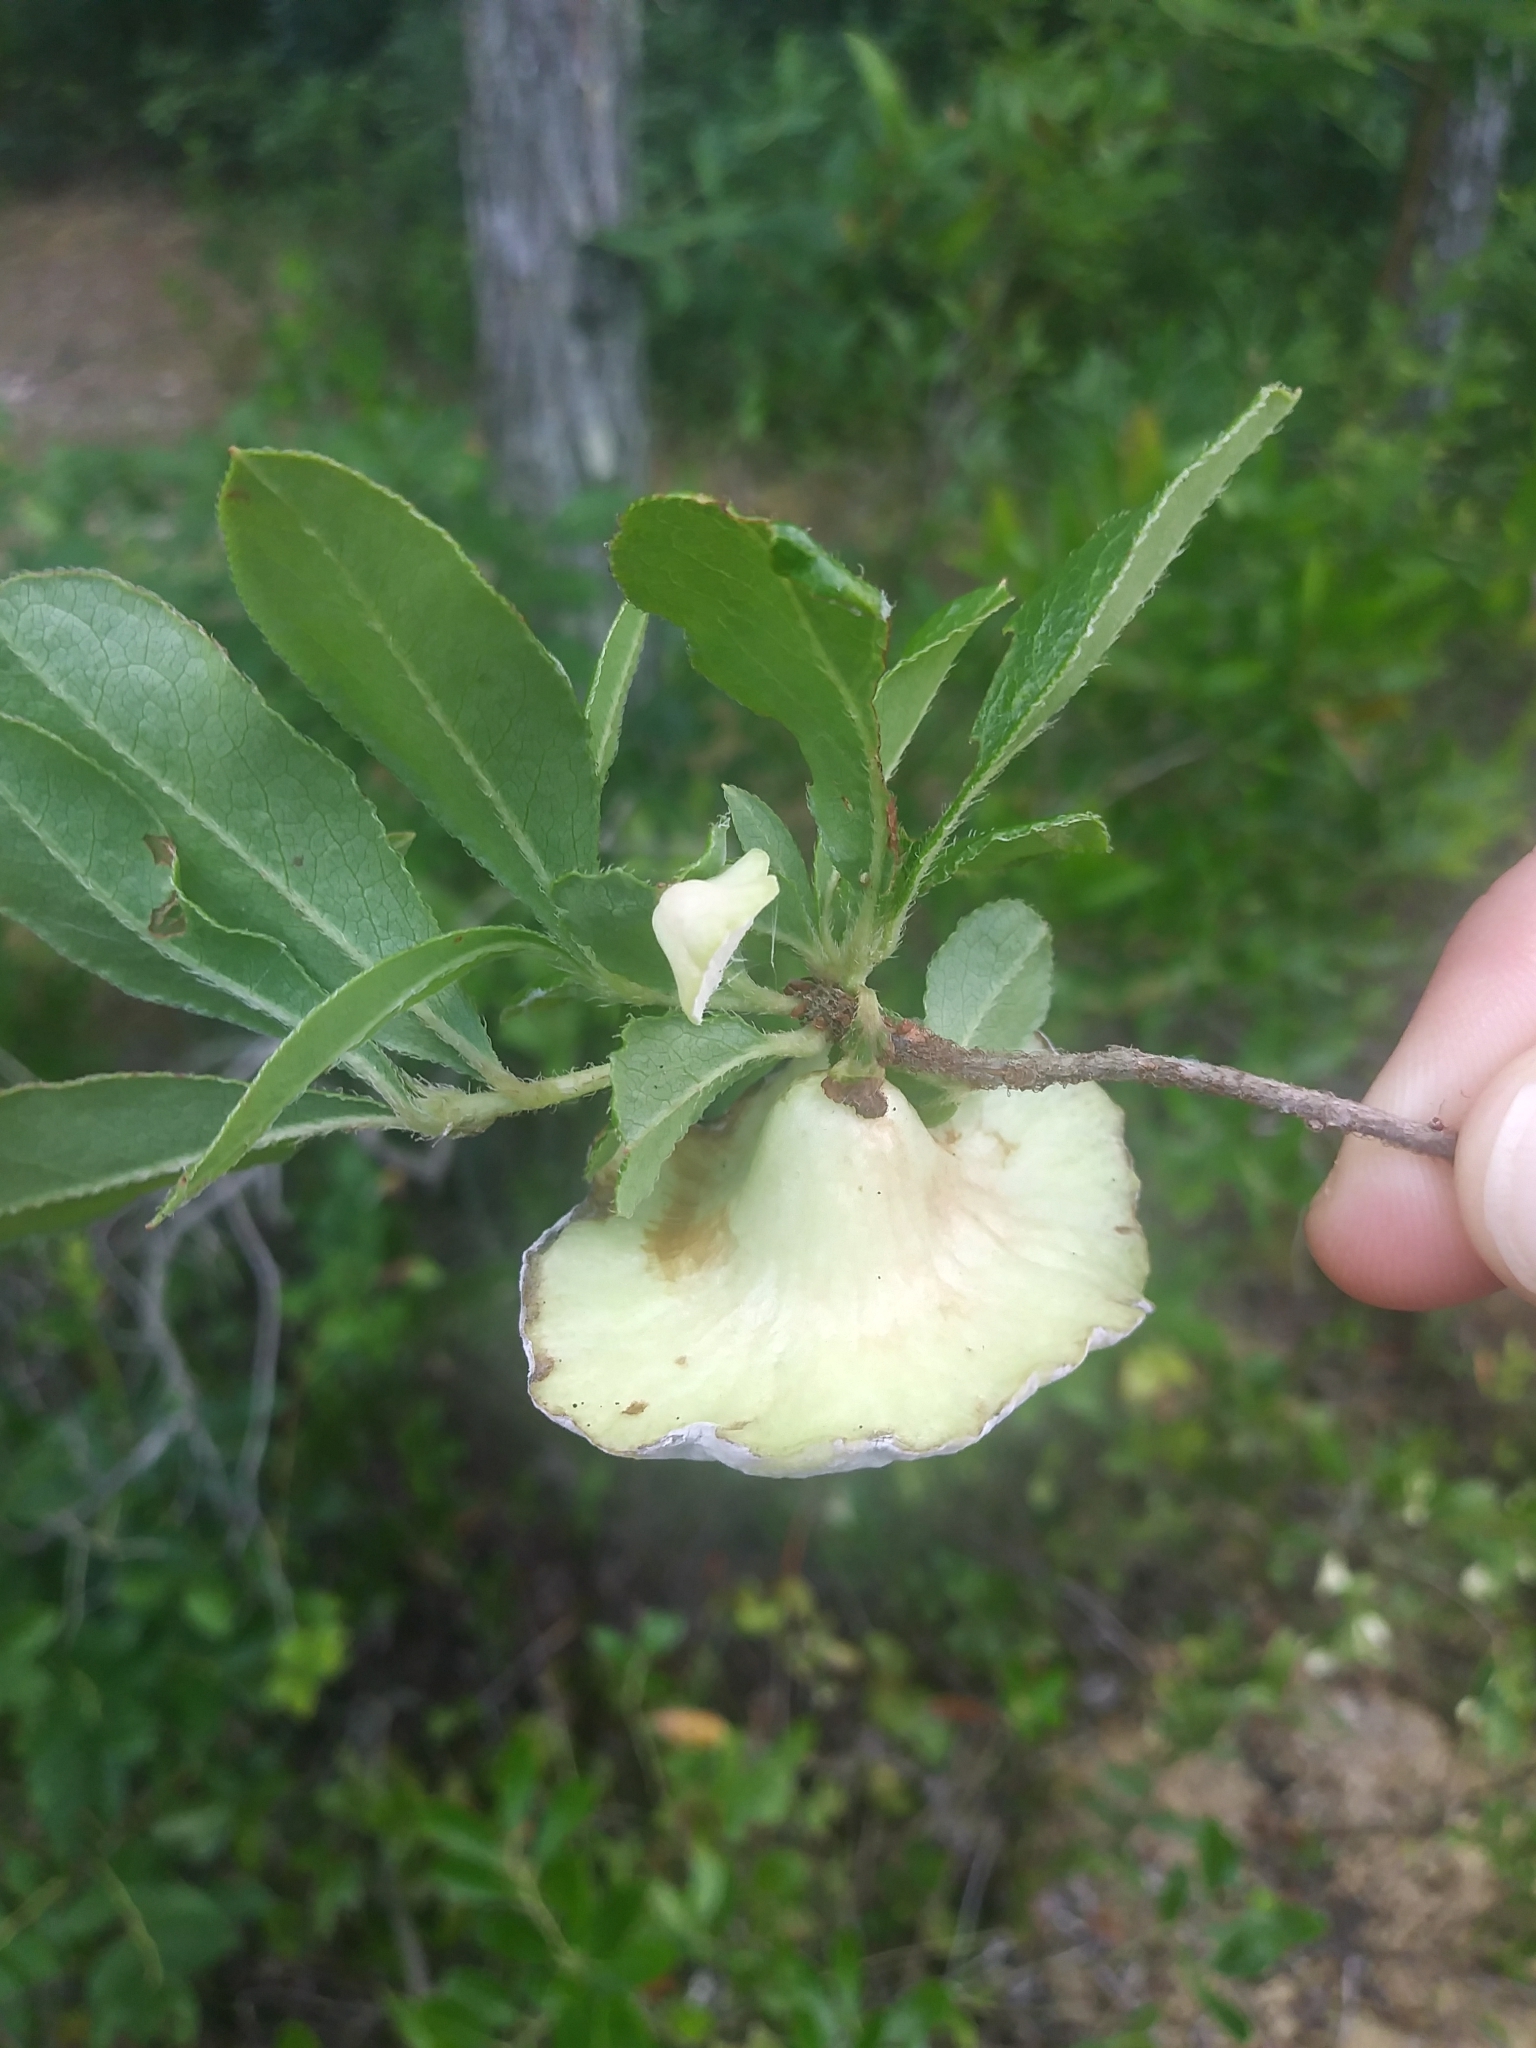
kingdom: Fungi
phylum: Basidiomycota
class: Exobasidiomycetes
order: Exobasidiales
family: Exobasidiaceae
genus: Exobasidium
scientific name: Exobasidium rhododendri
